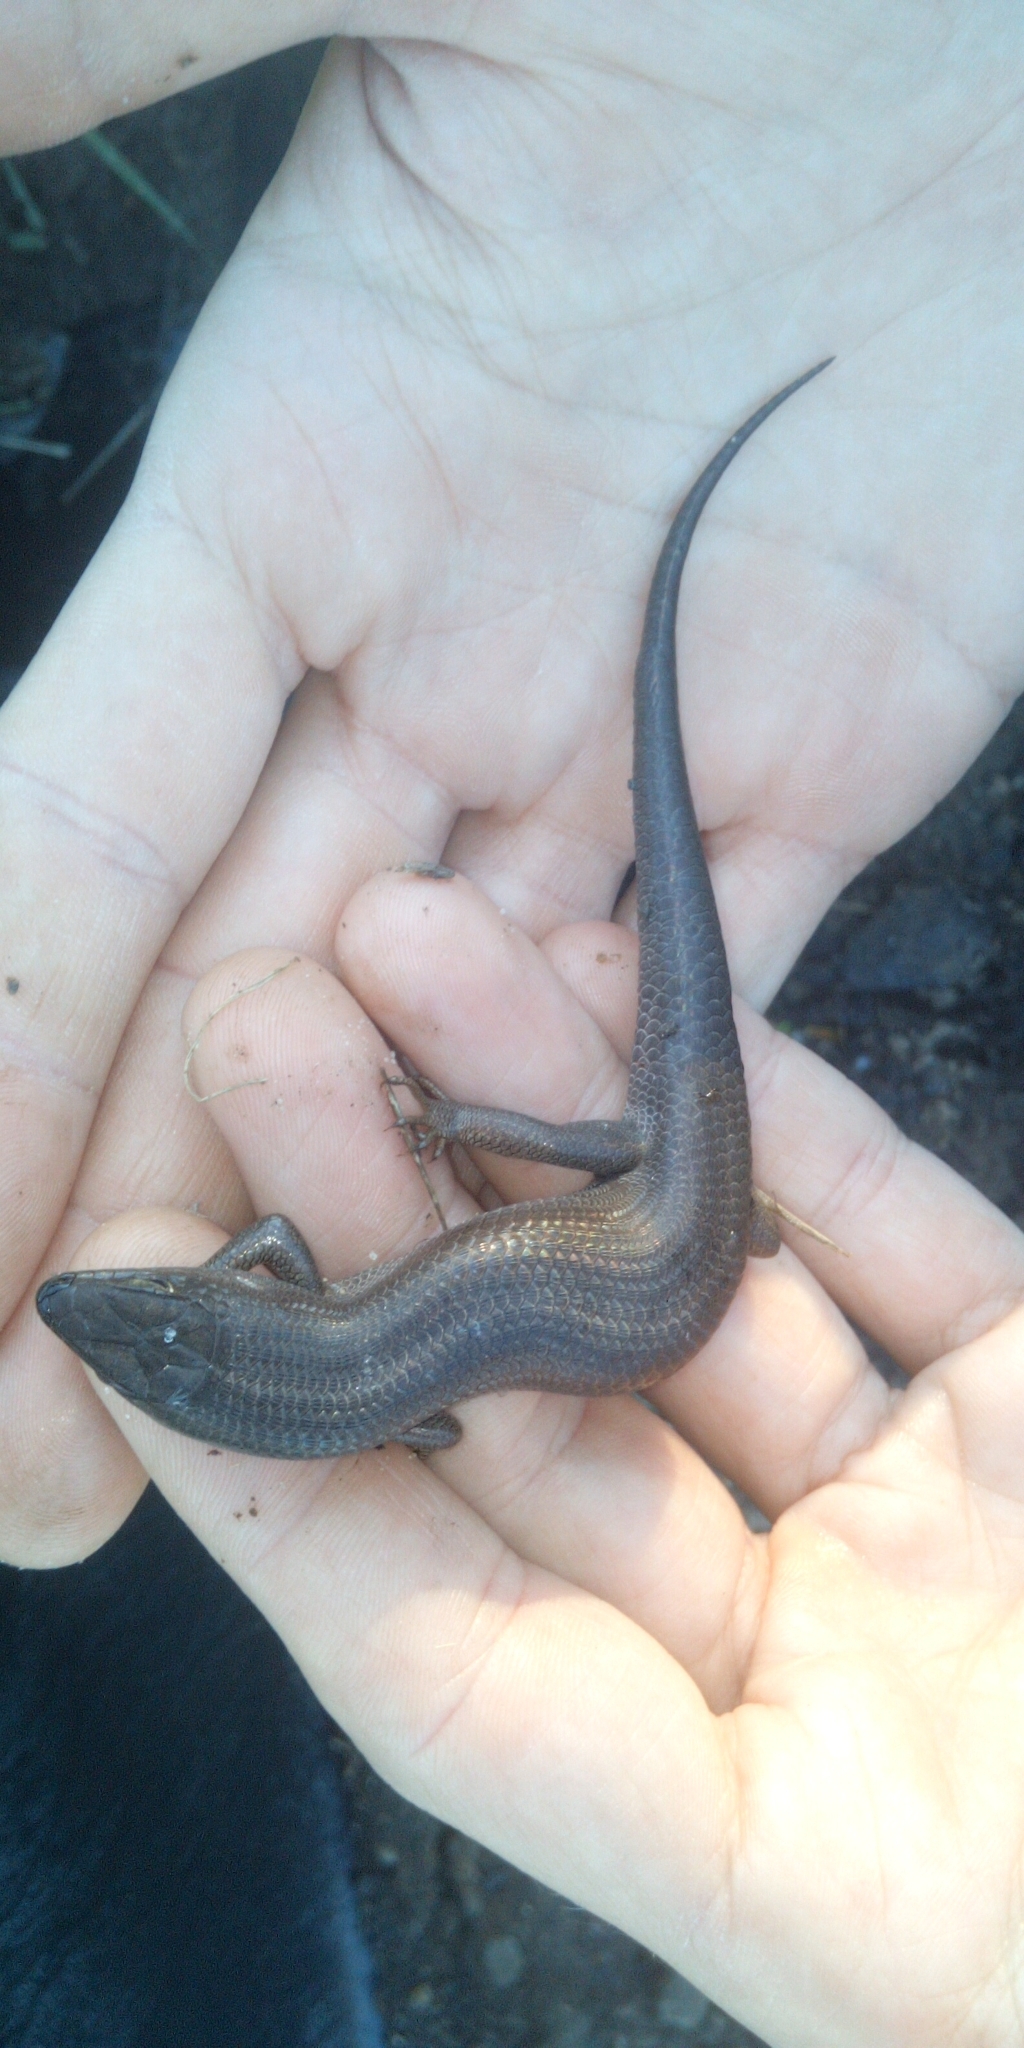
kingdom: Animalia
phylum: Chordata
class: Squamata
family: Scincidae
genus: Trachylepis
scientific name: Trachylepis capensis
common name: Cape skink
